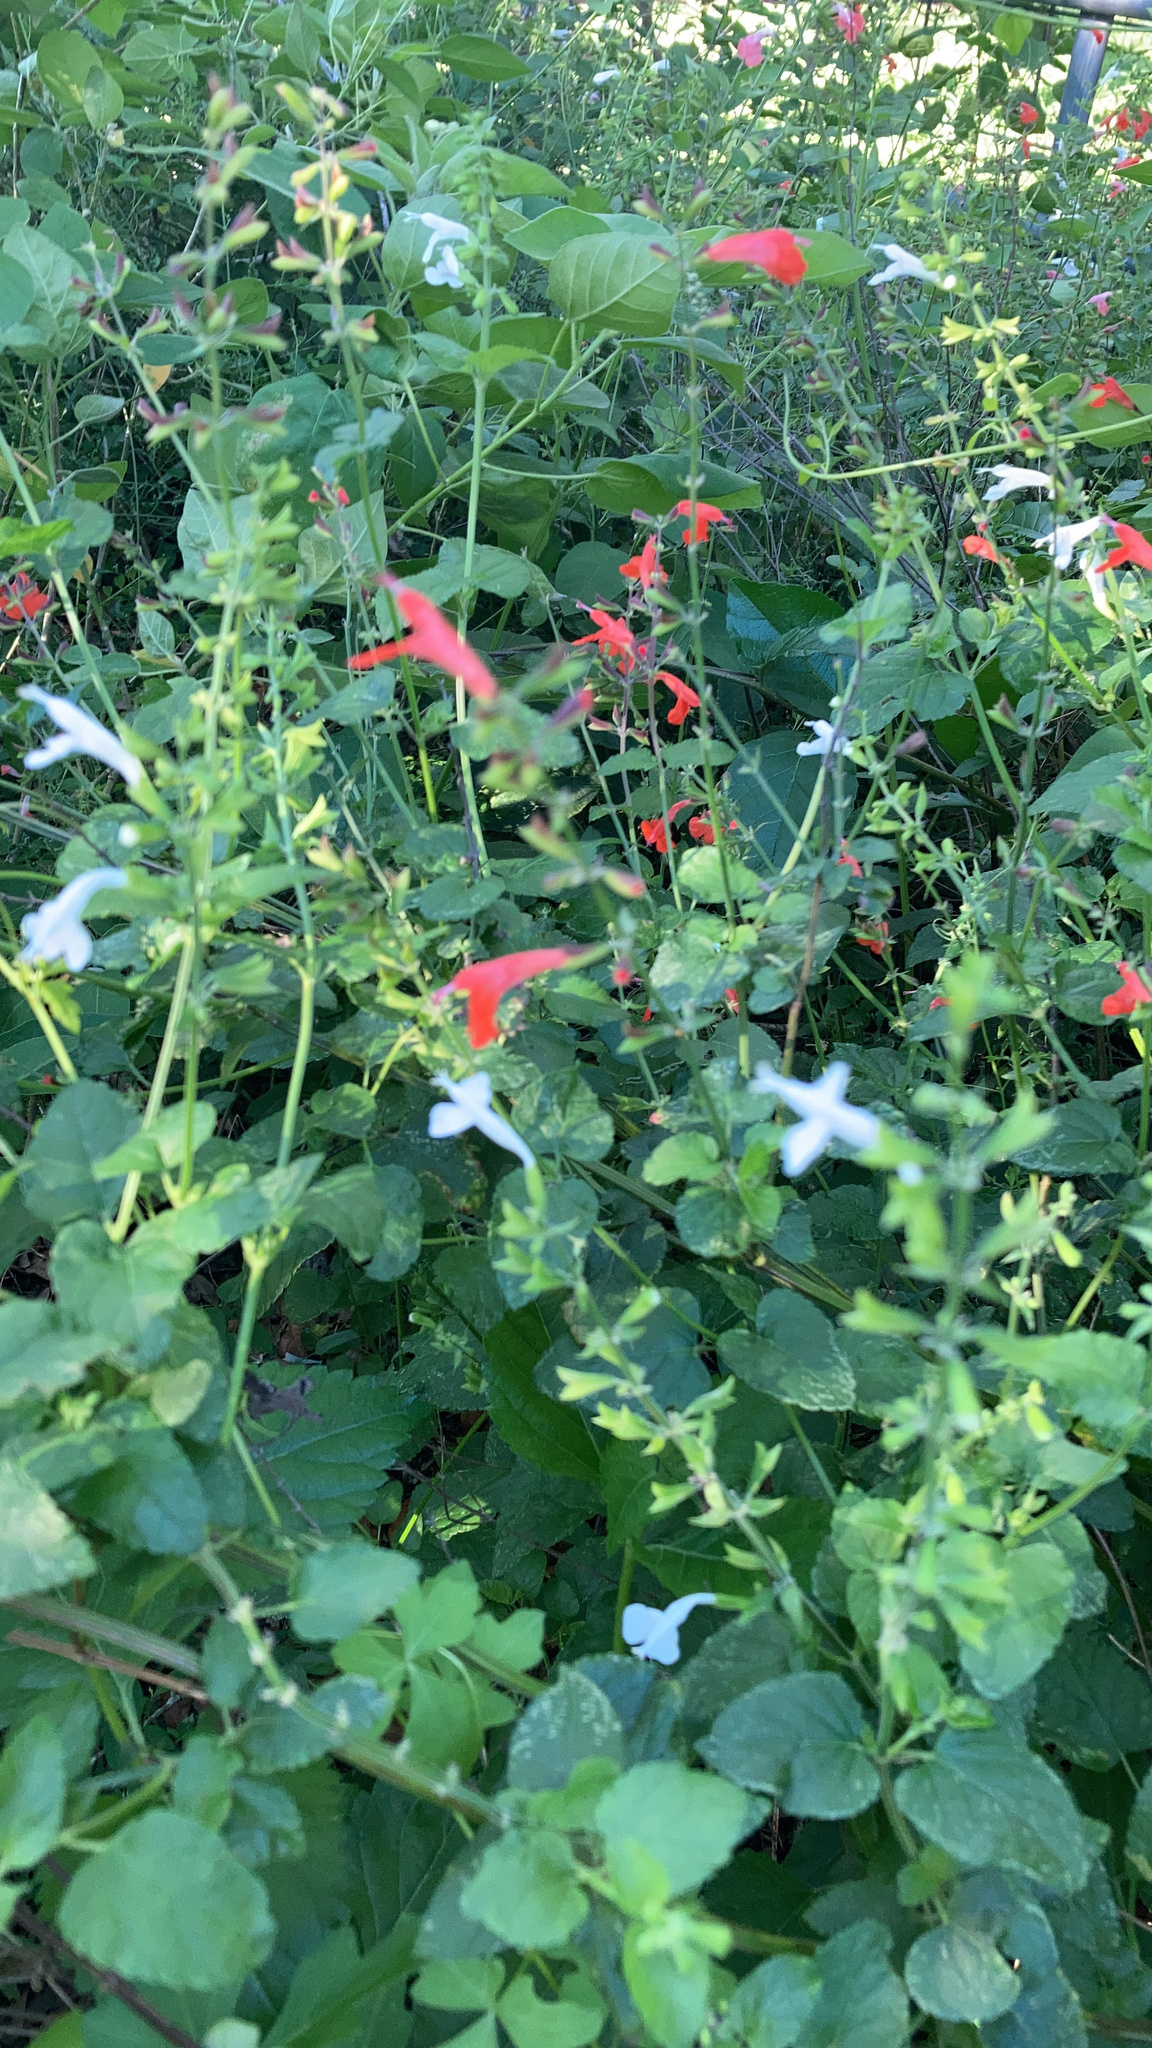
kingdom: Plantae
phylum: Tracheophyta
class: Magnoliopsida
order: Lamiales
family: Lamiaceae
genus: Salvia
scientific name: Salvia coccinea
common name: Blood sage
